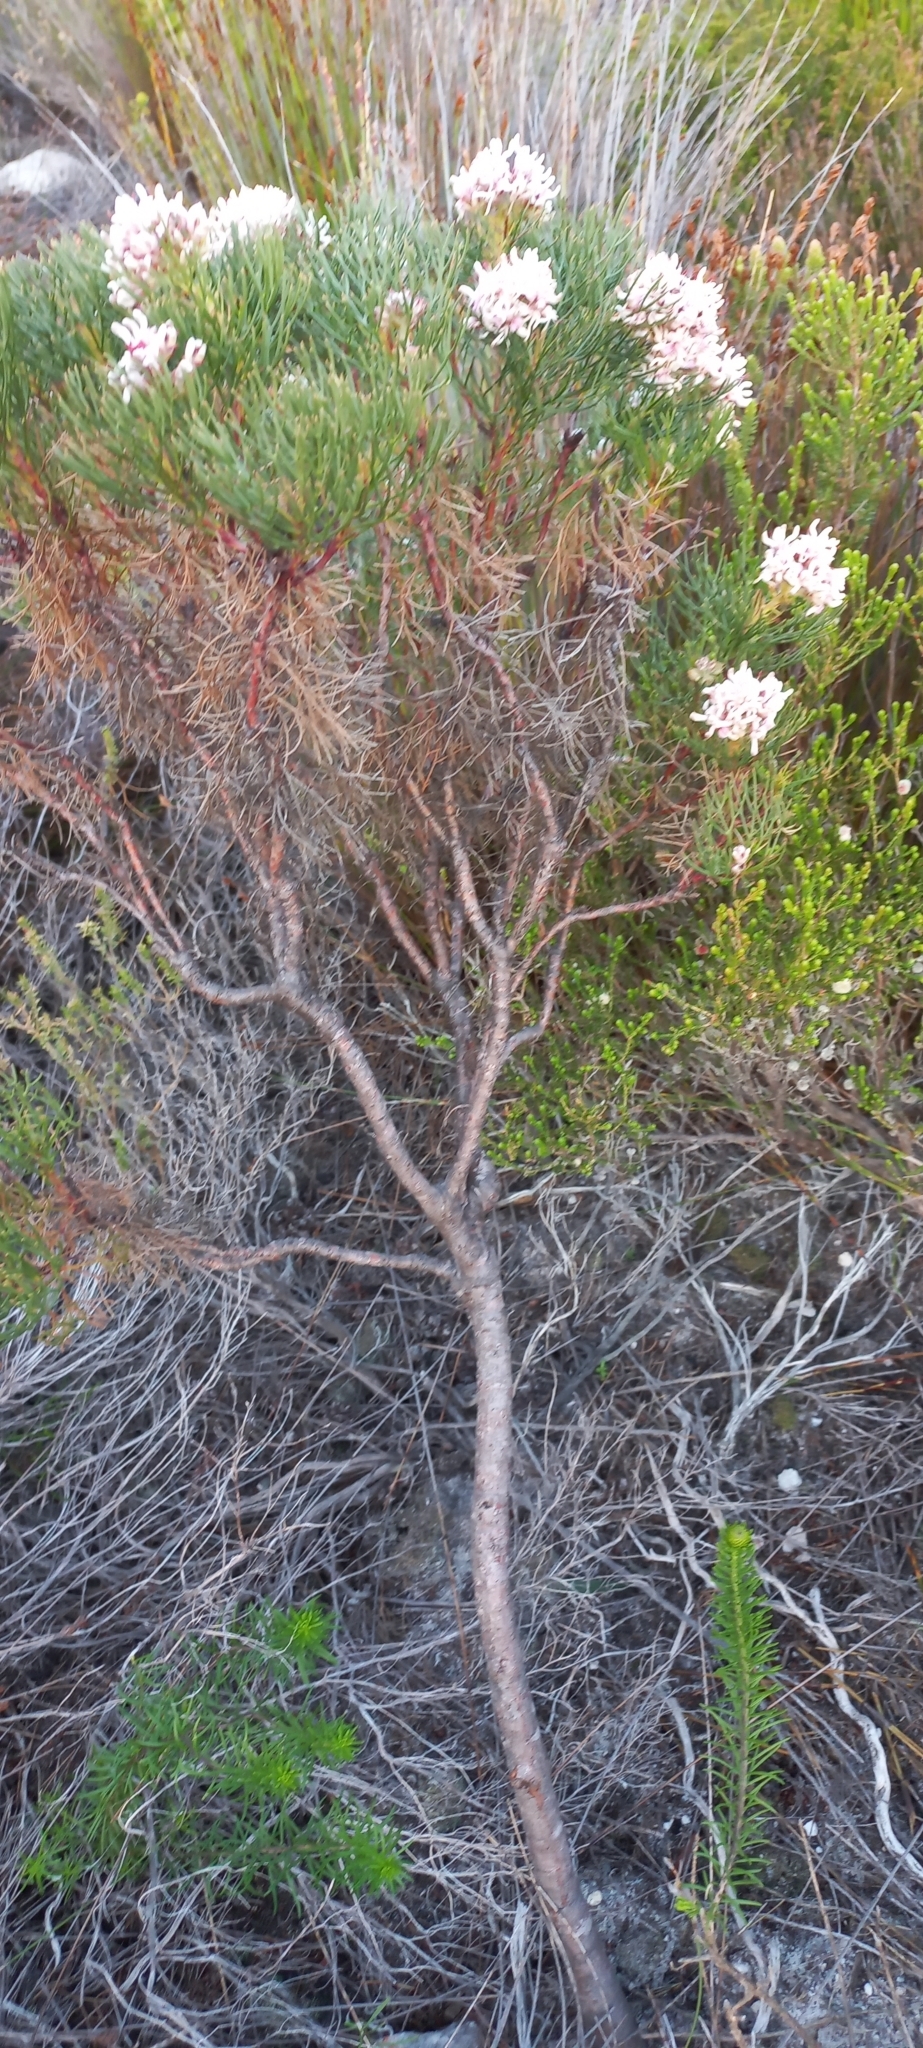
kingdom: Plantae
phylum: Tracheophyta
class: Magnoliopsida
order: Proteales
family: Proteaceae
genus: Serruria
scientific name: Serruria ascendens
